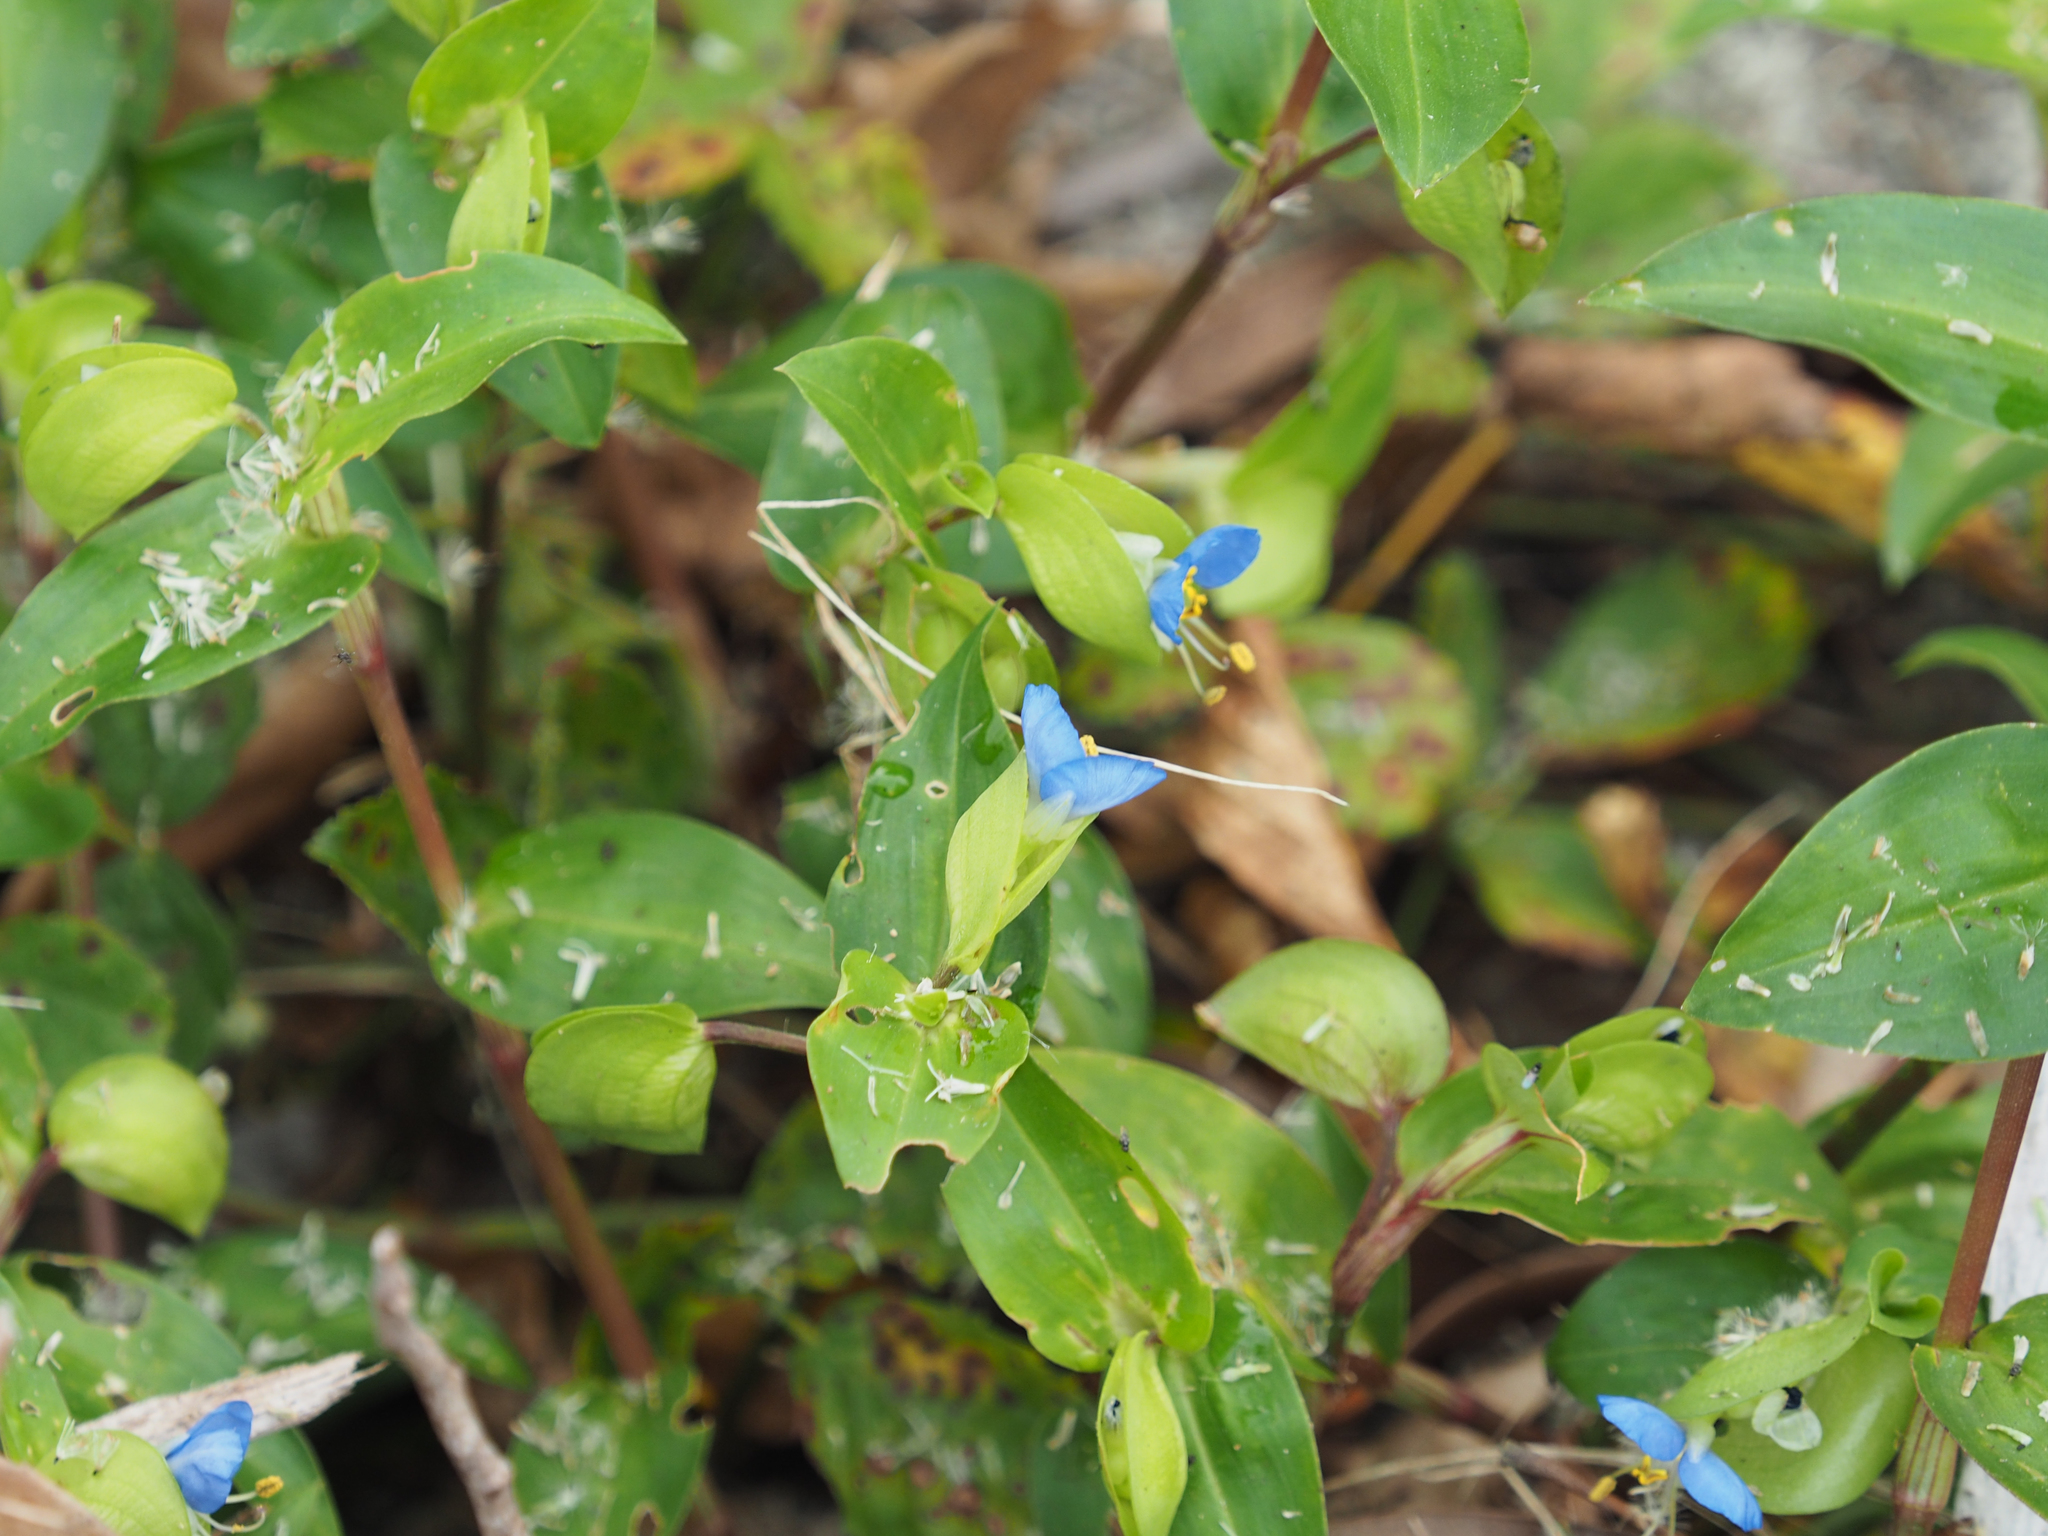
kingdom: Plantae
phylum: Tracheophyta
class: Liliopsida
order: Commelinales
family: Commelinaceae
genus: Commelina
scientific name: Commelina communis
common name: Asiatic dayflower
